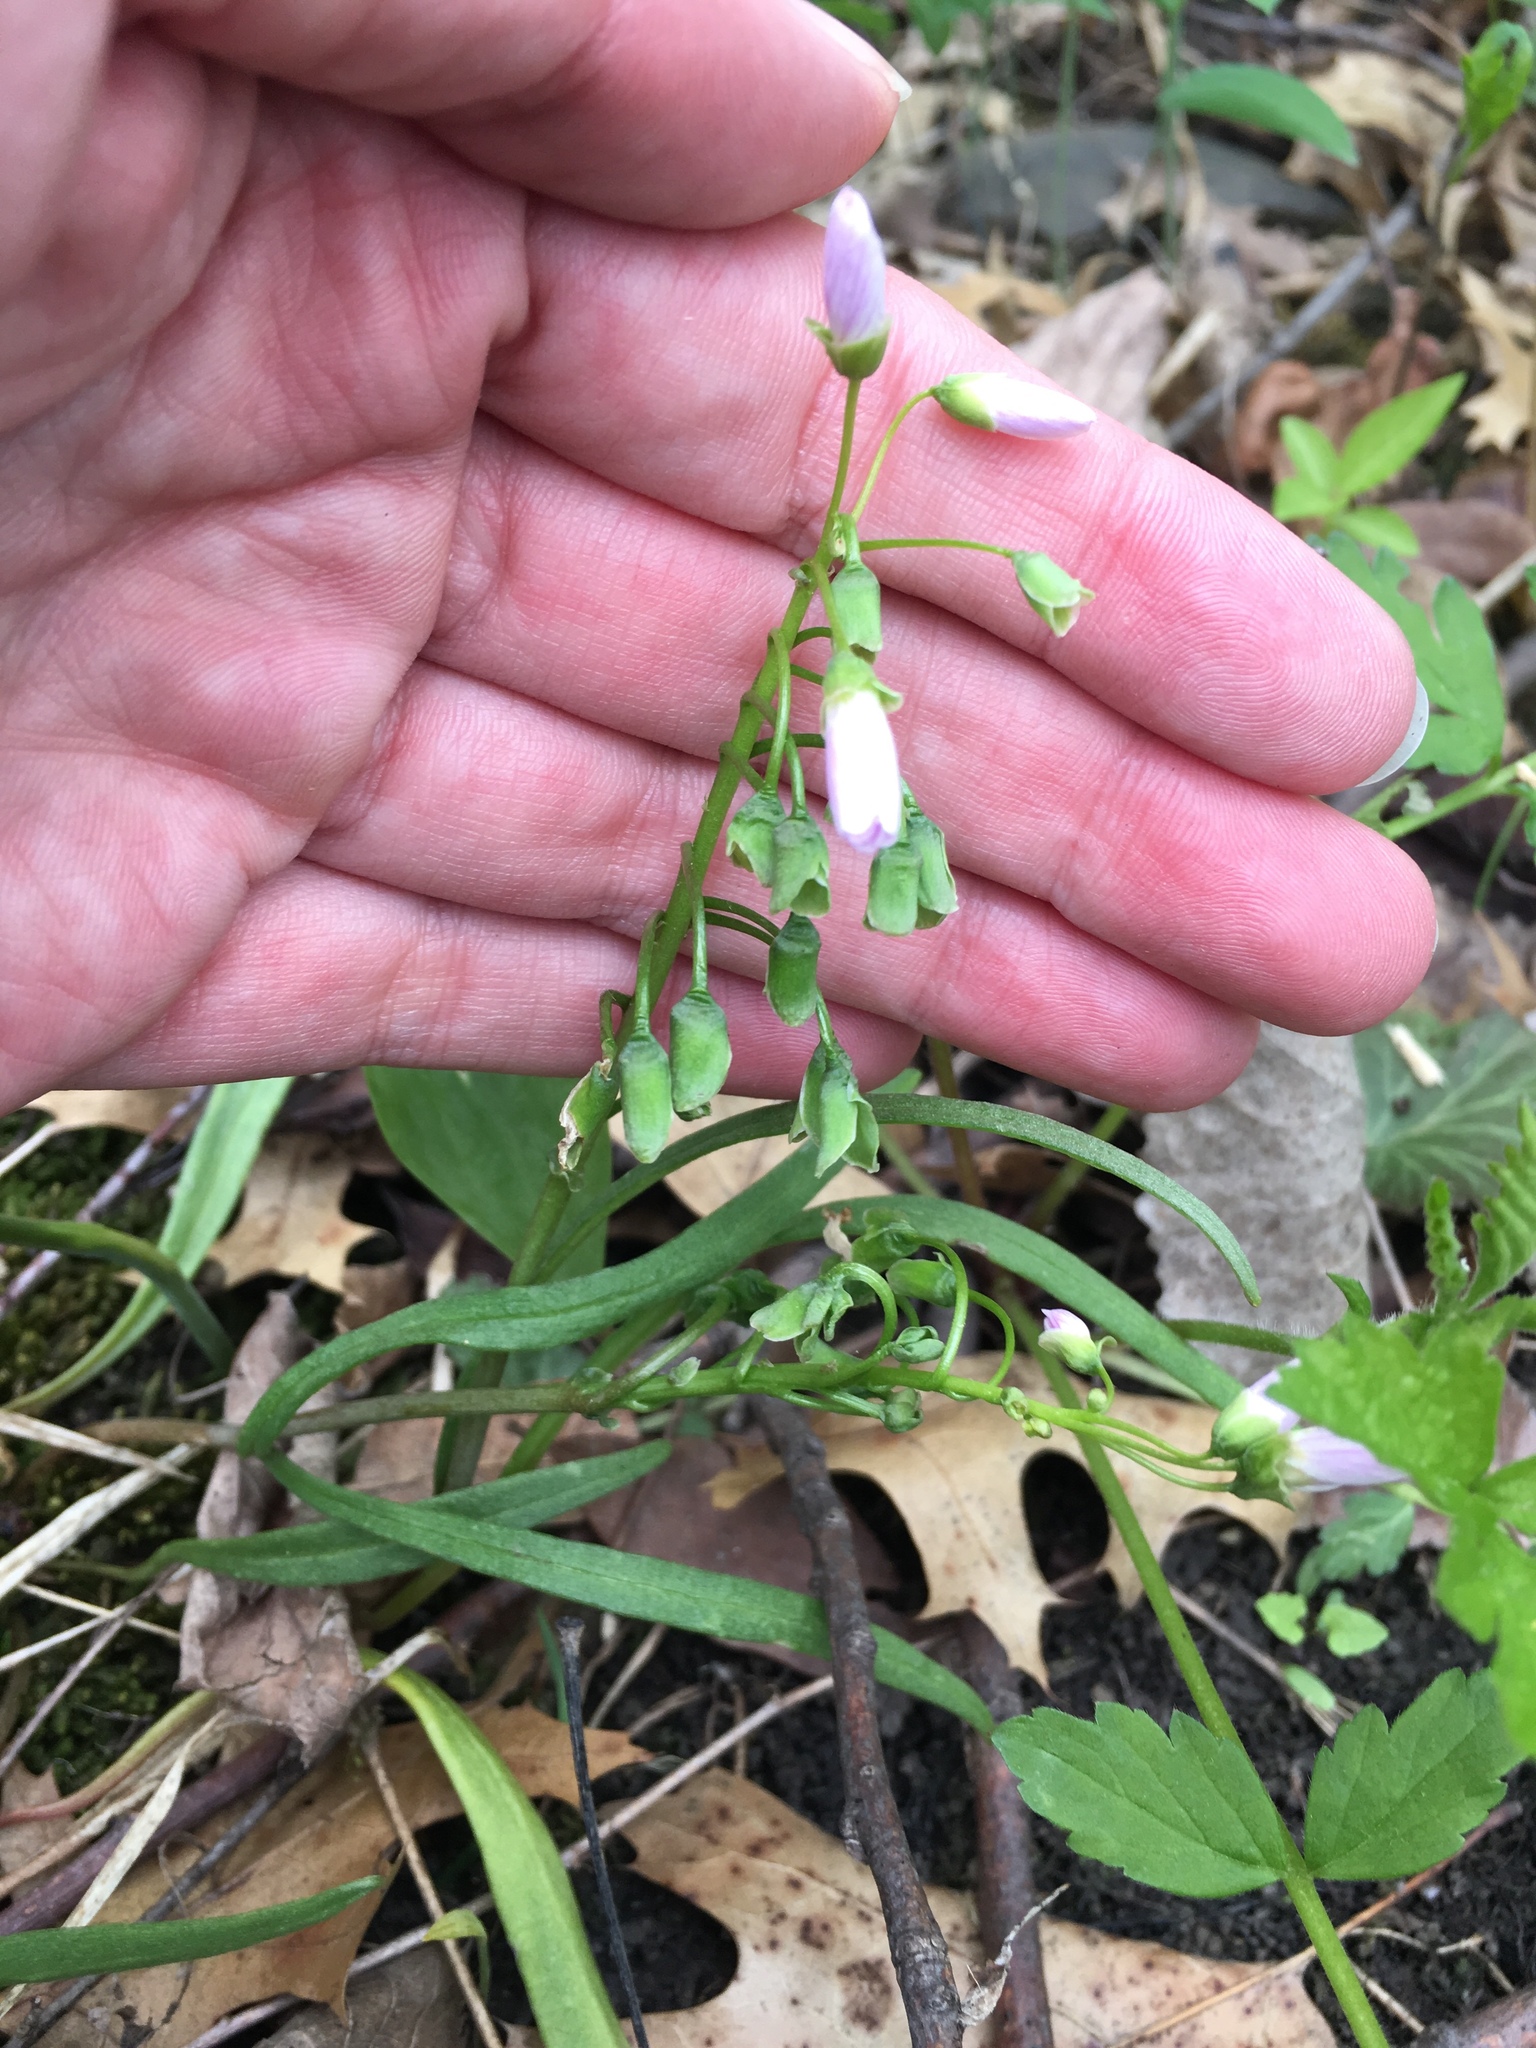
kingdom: Plantae
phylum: Tracheophyta
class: Magnoliopsida
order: Caryophyllales
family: Montiaceae
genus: Claytonia
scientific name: Claytonia virginica
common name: Virginia springbeauty
